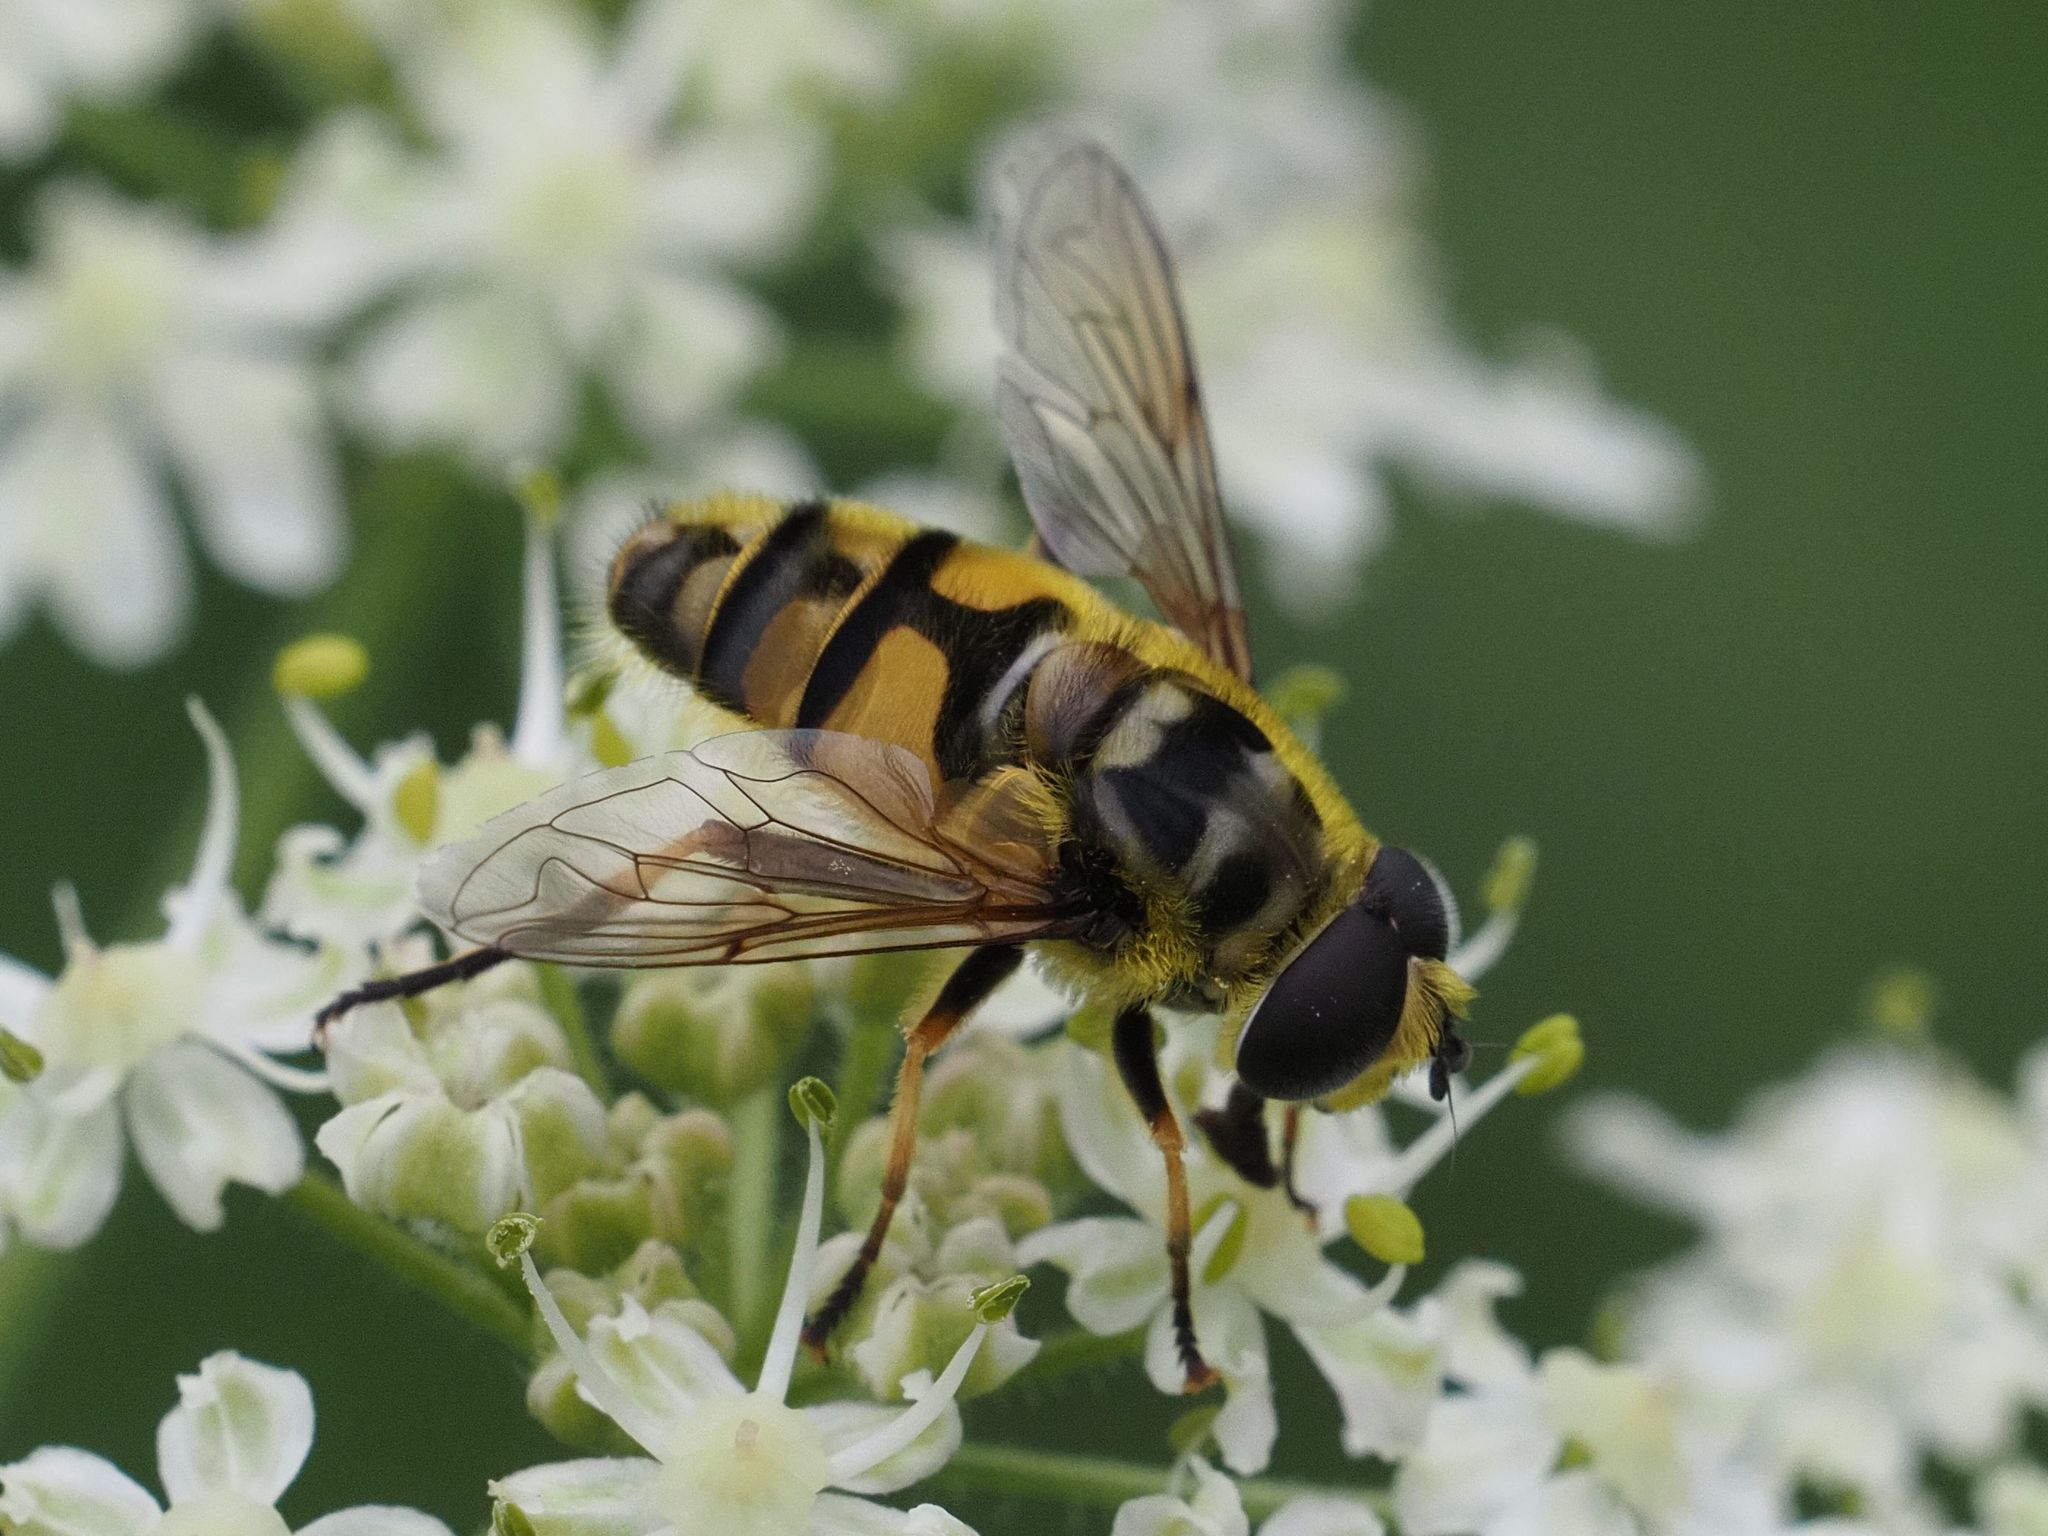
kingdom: Animalia
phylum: Arthropoda
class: Insecta
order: Diptera
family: Syrphidae
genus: Myathropa
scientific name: Myathropa florea
